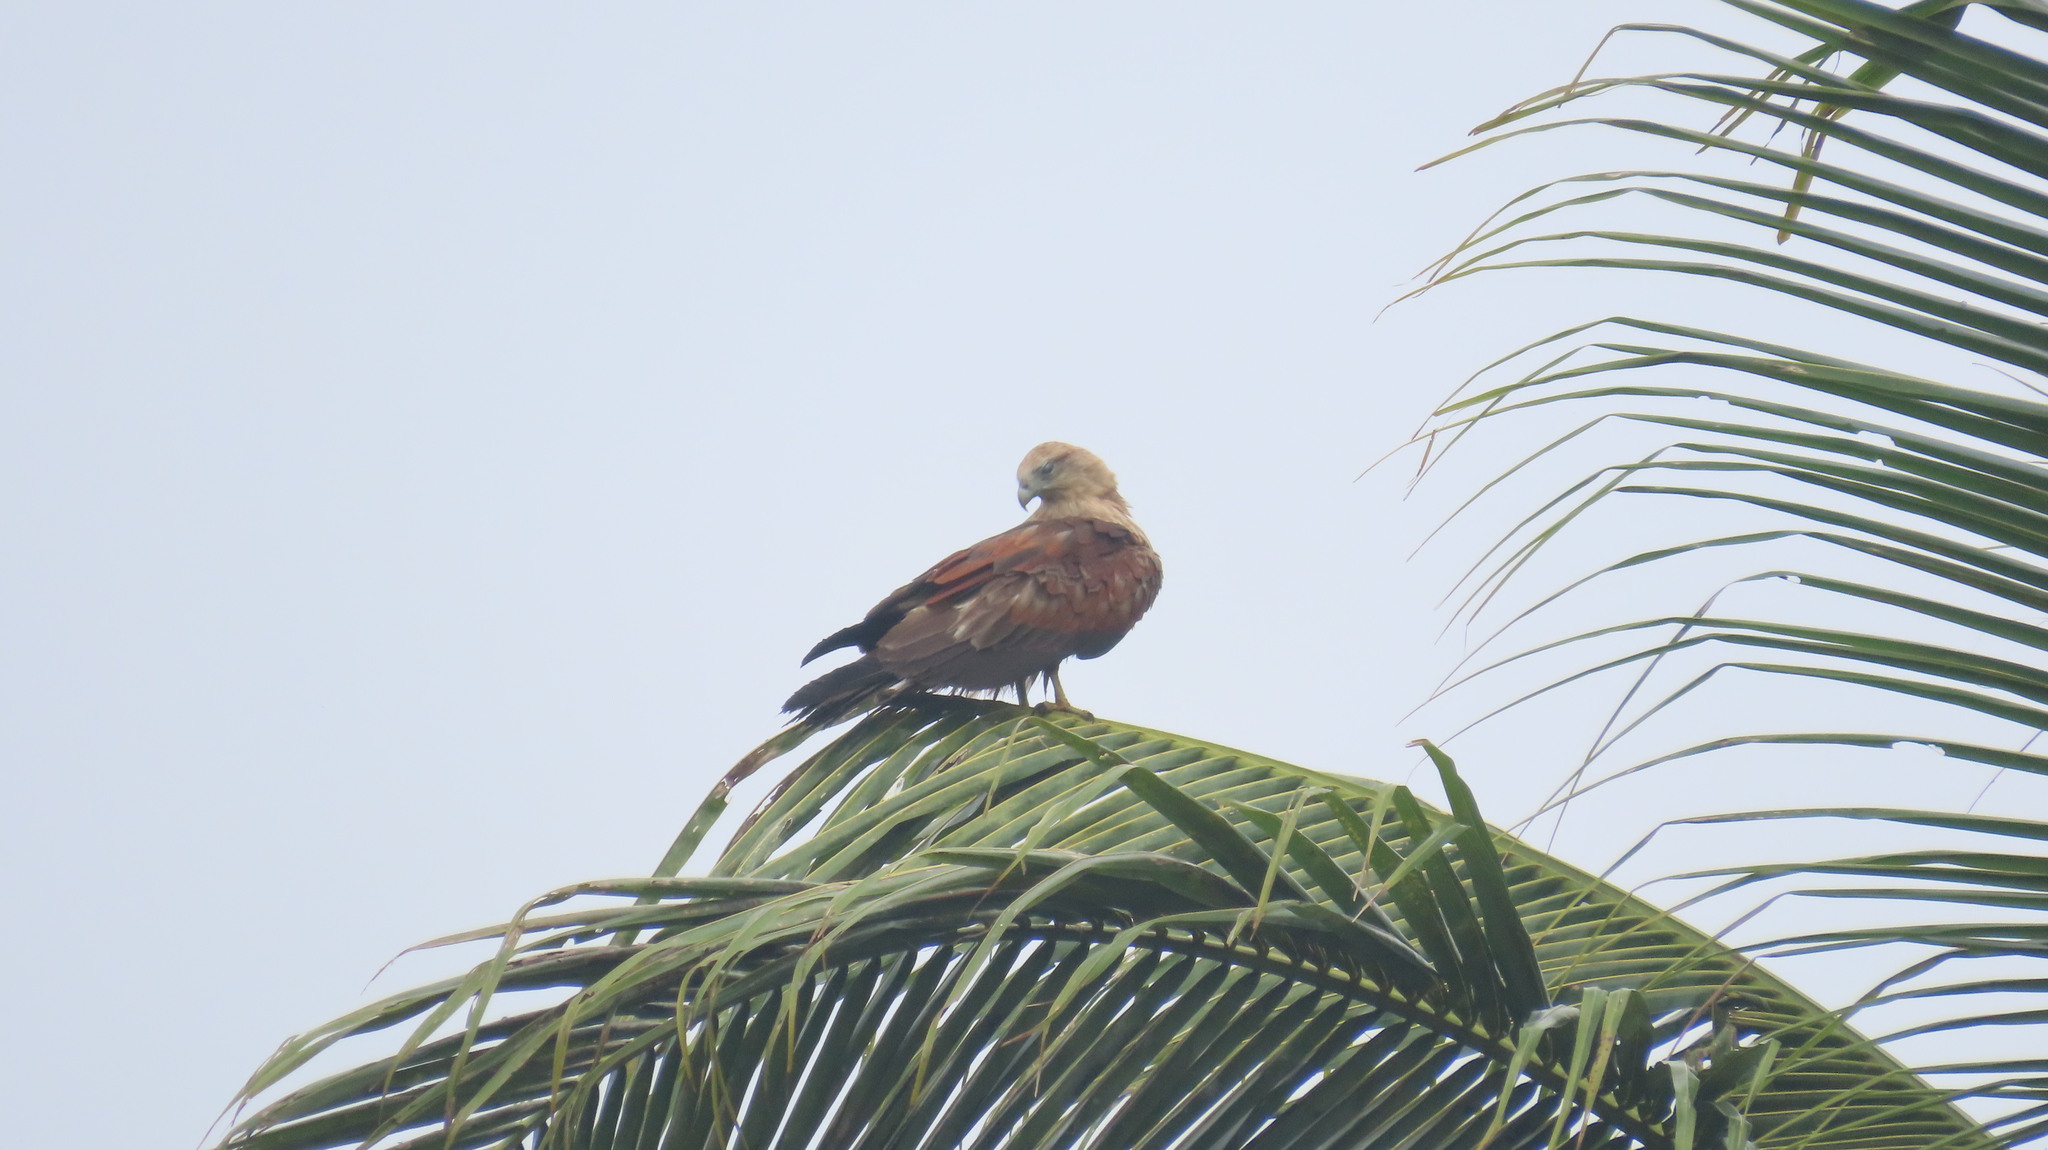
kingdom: Animalia
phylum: Chordata
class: Aves
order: Accipitriformes
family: Accipitridae
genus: Haliastur
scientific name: Haliastur indus
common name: Brahminy kite
